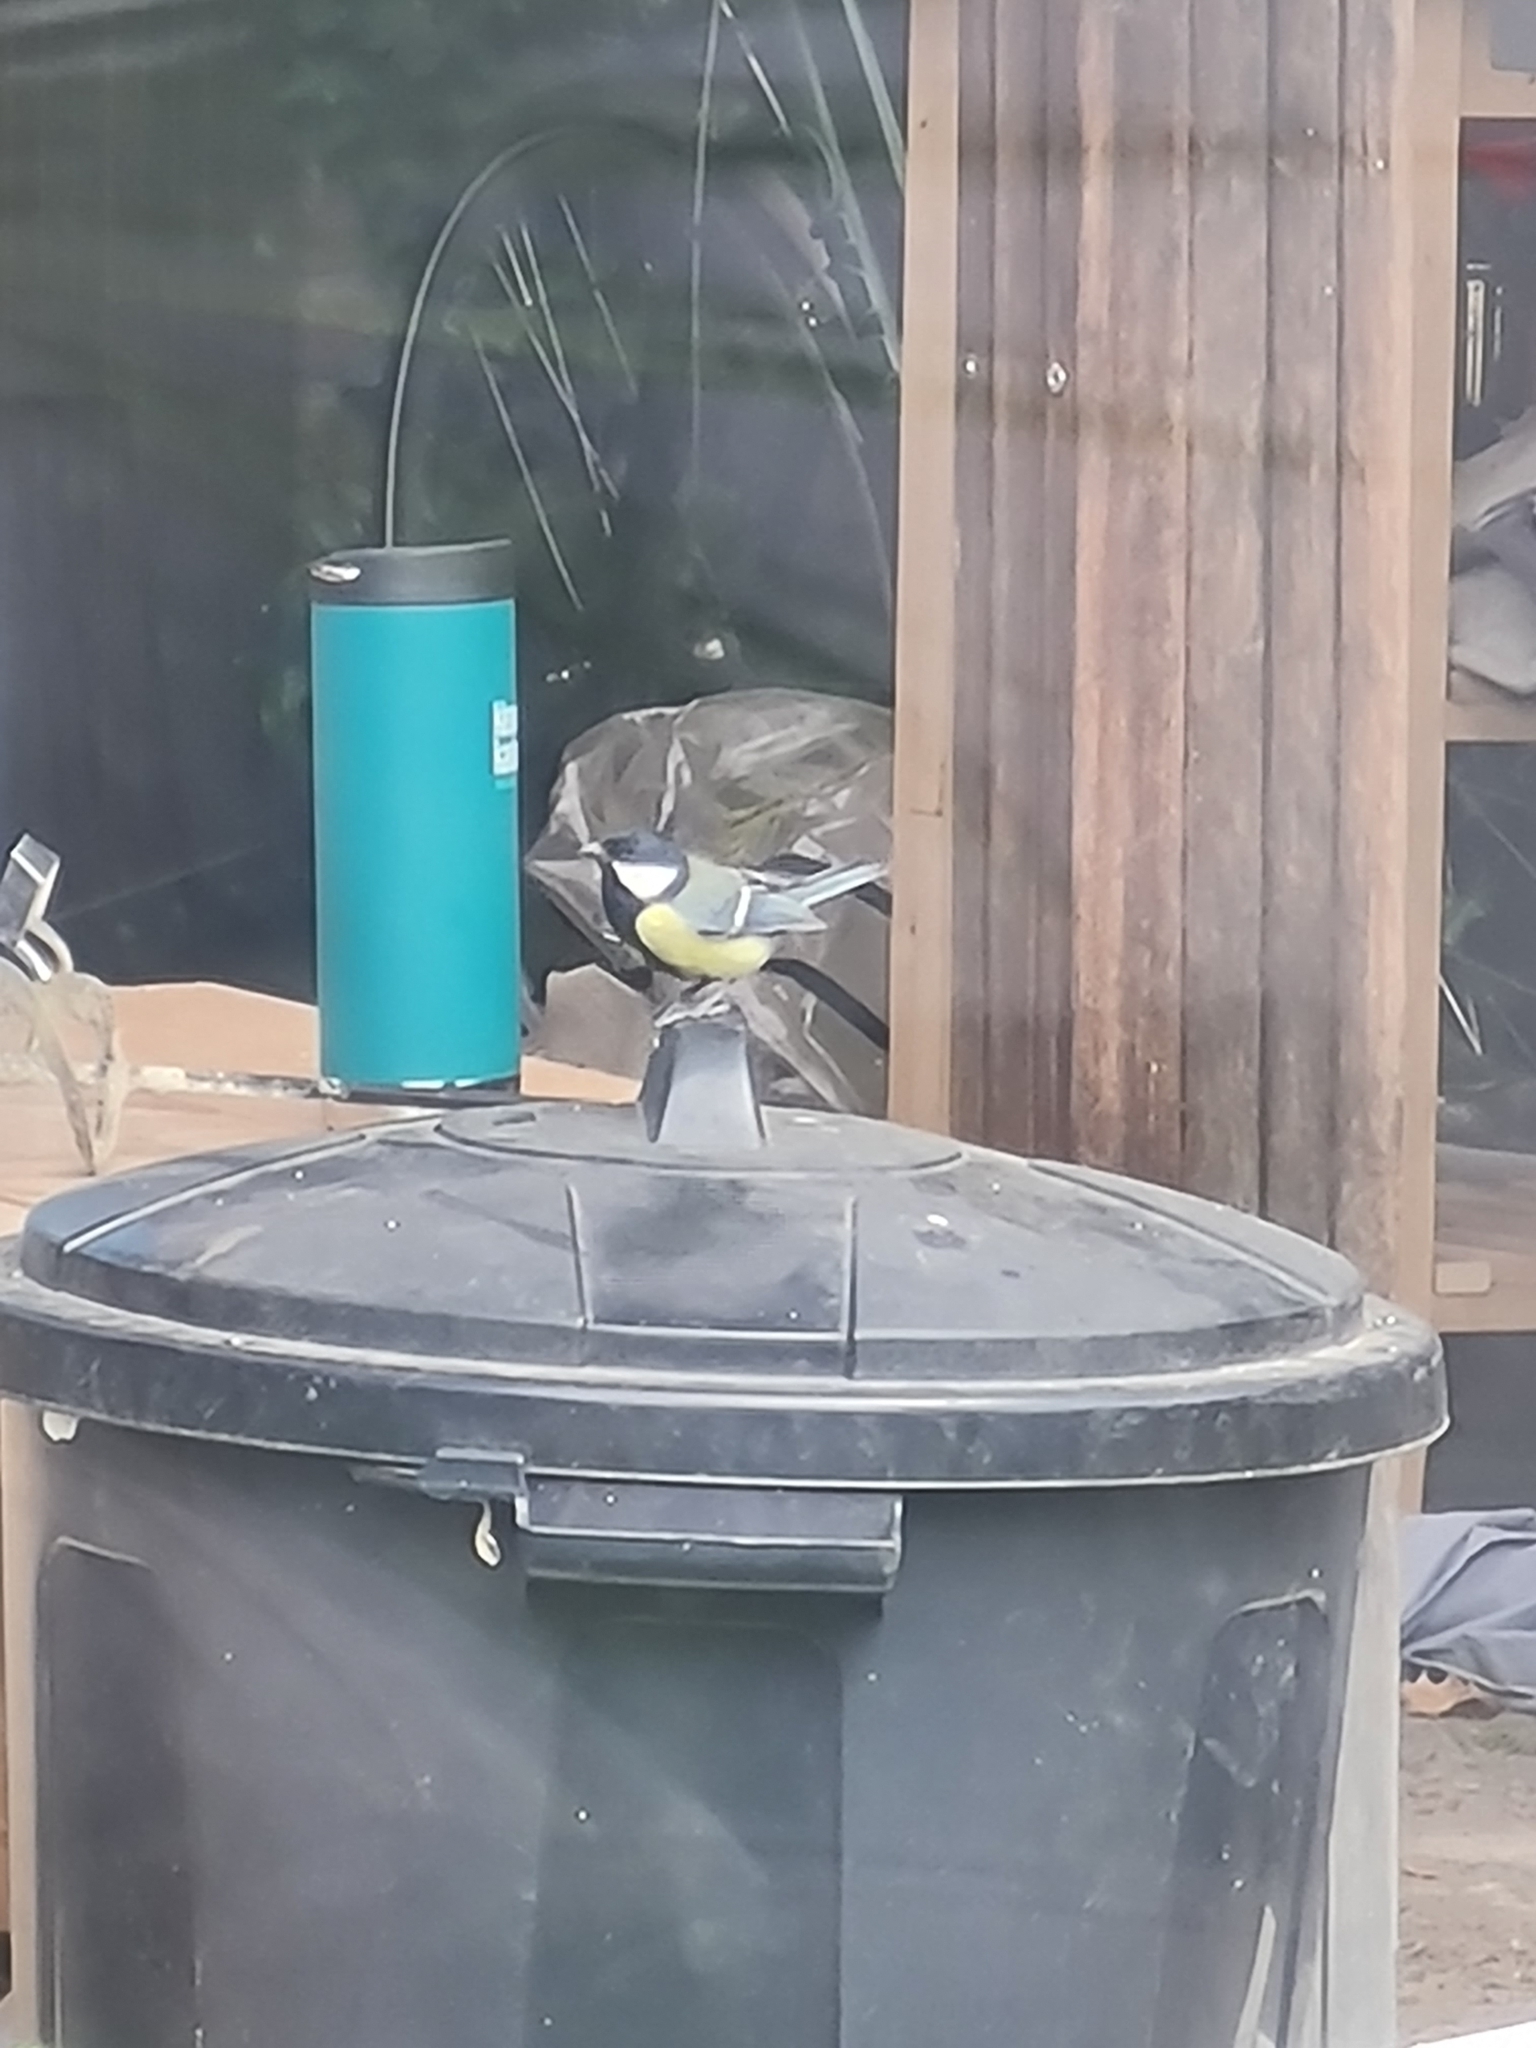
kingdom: Animalia
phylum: Chordata
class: Aves
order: Passeriformes
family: Paridae
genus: Parus
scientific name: Parus major
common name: Great tit
